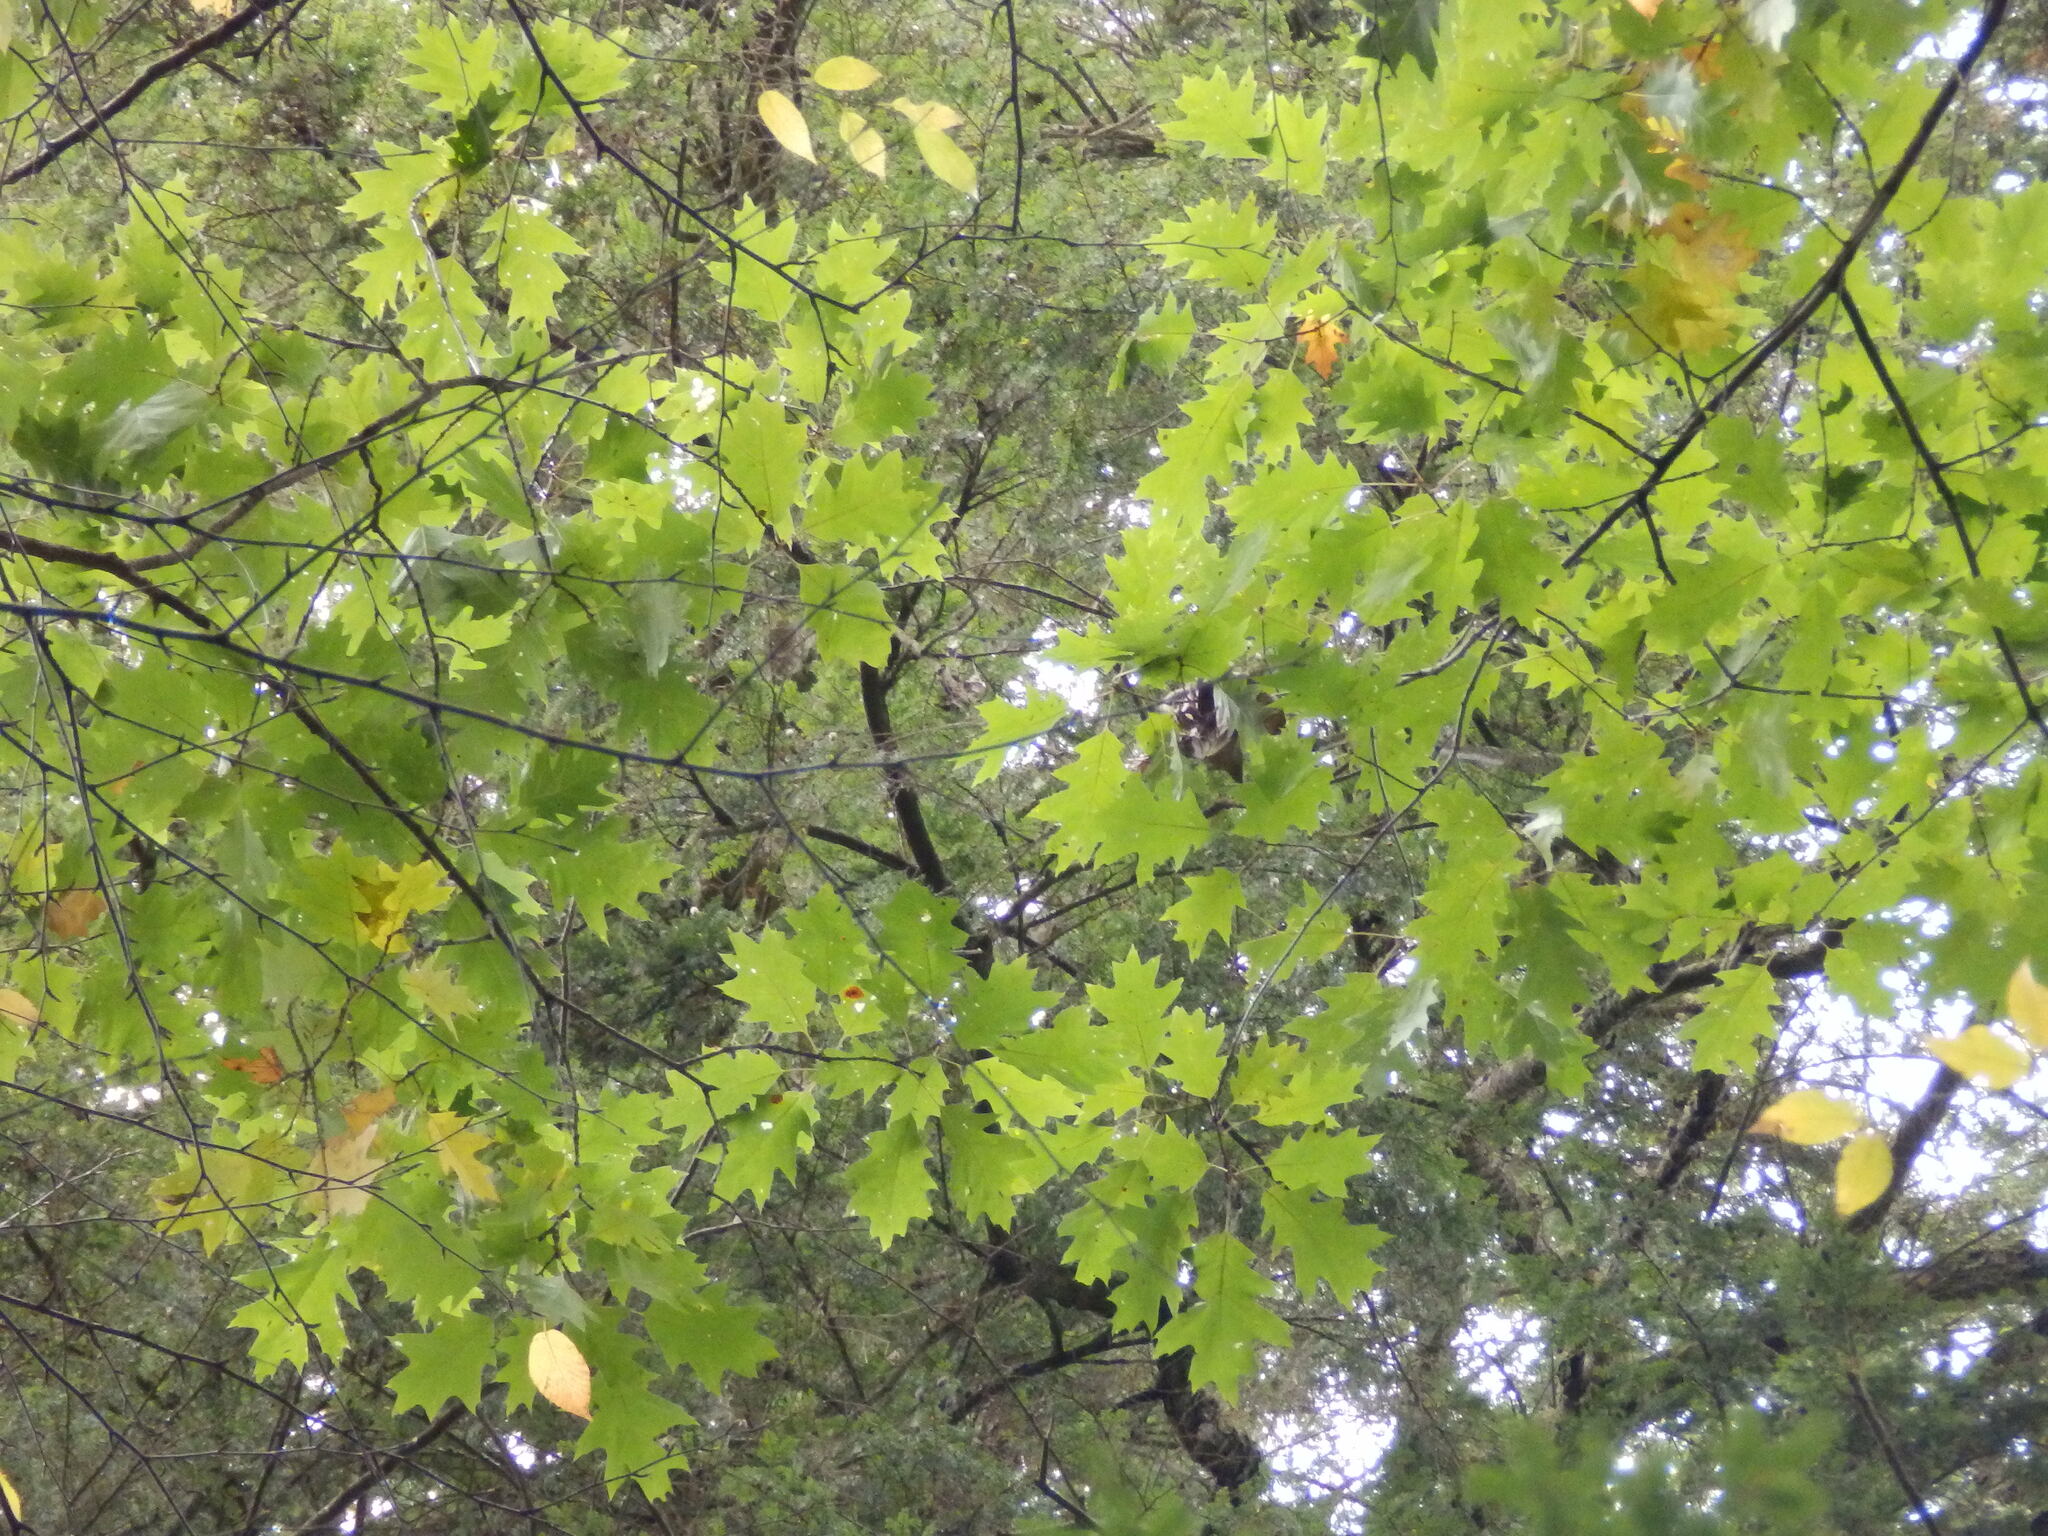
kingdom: Plantae
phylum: Tracheophyta
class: Magnoliopsida
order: Fagales
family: Fagaceae
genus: Quercus
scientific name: Quercus rubra
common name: Red oak
